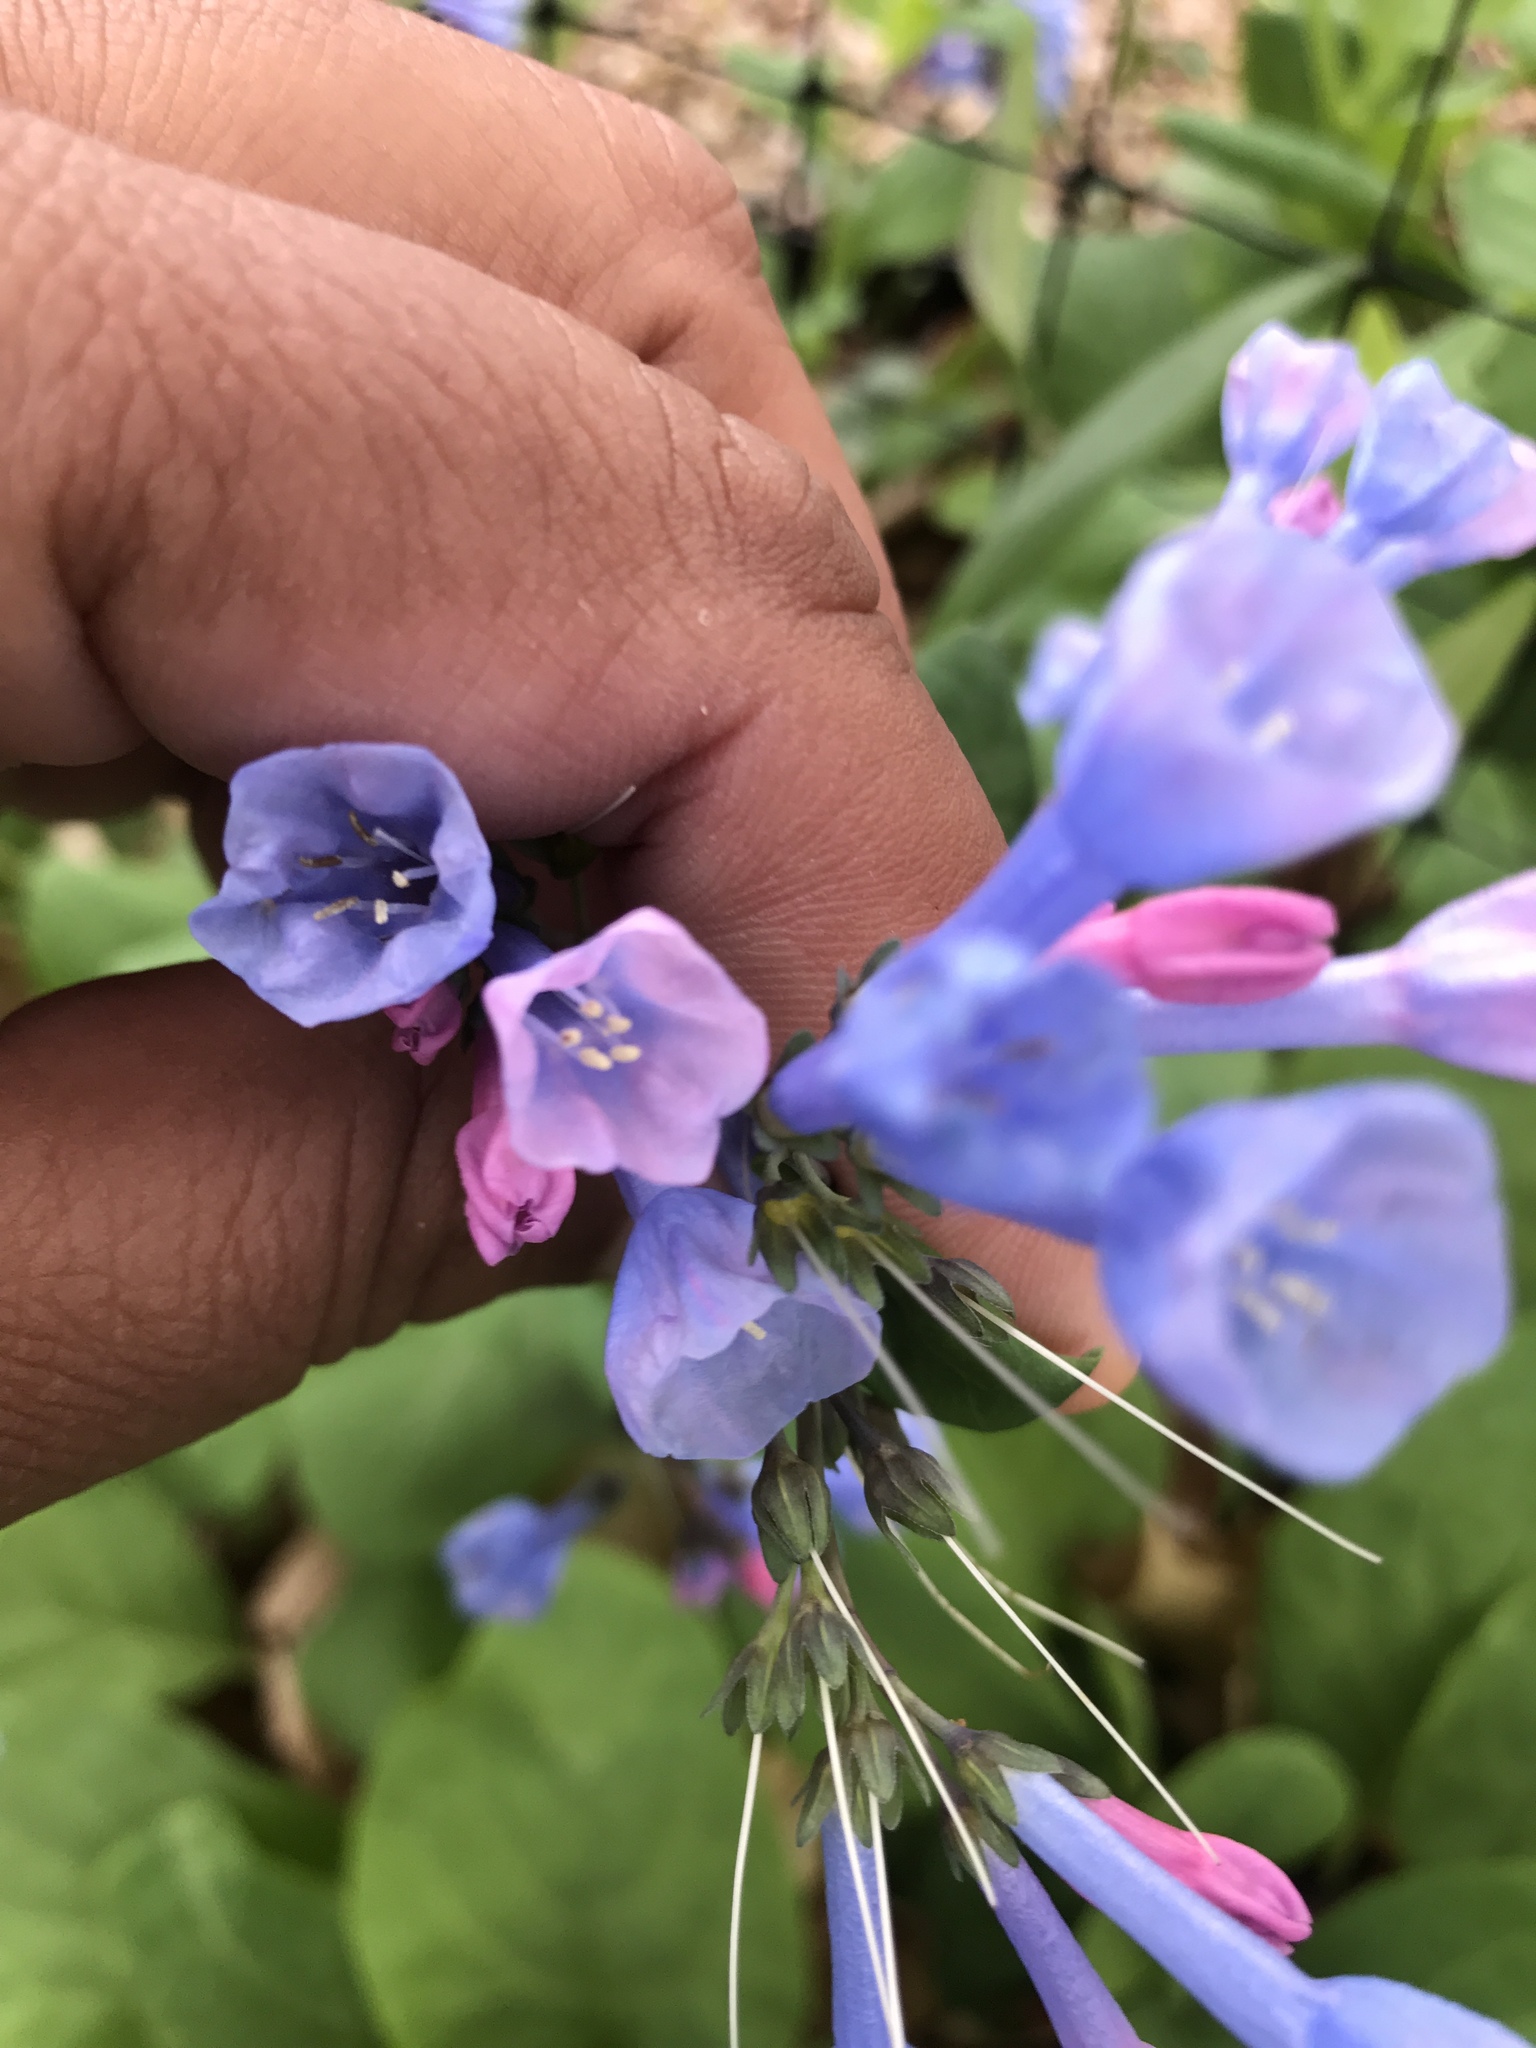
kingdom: Plantae
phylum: Tracheophyta
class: Magnoliopsida
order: Boraginales
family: Boraginaceae
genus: Mertensia
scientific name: Mertensia virginica
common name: Virginia bluebells
